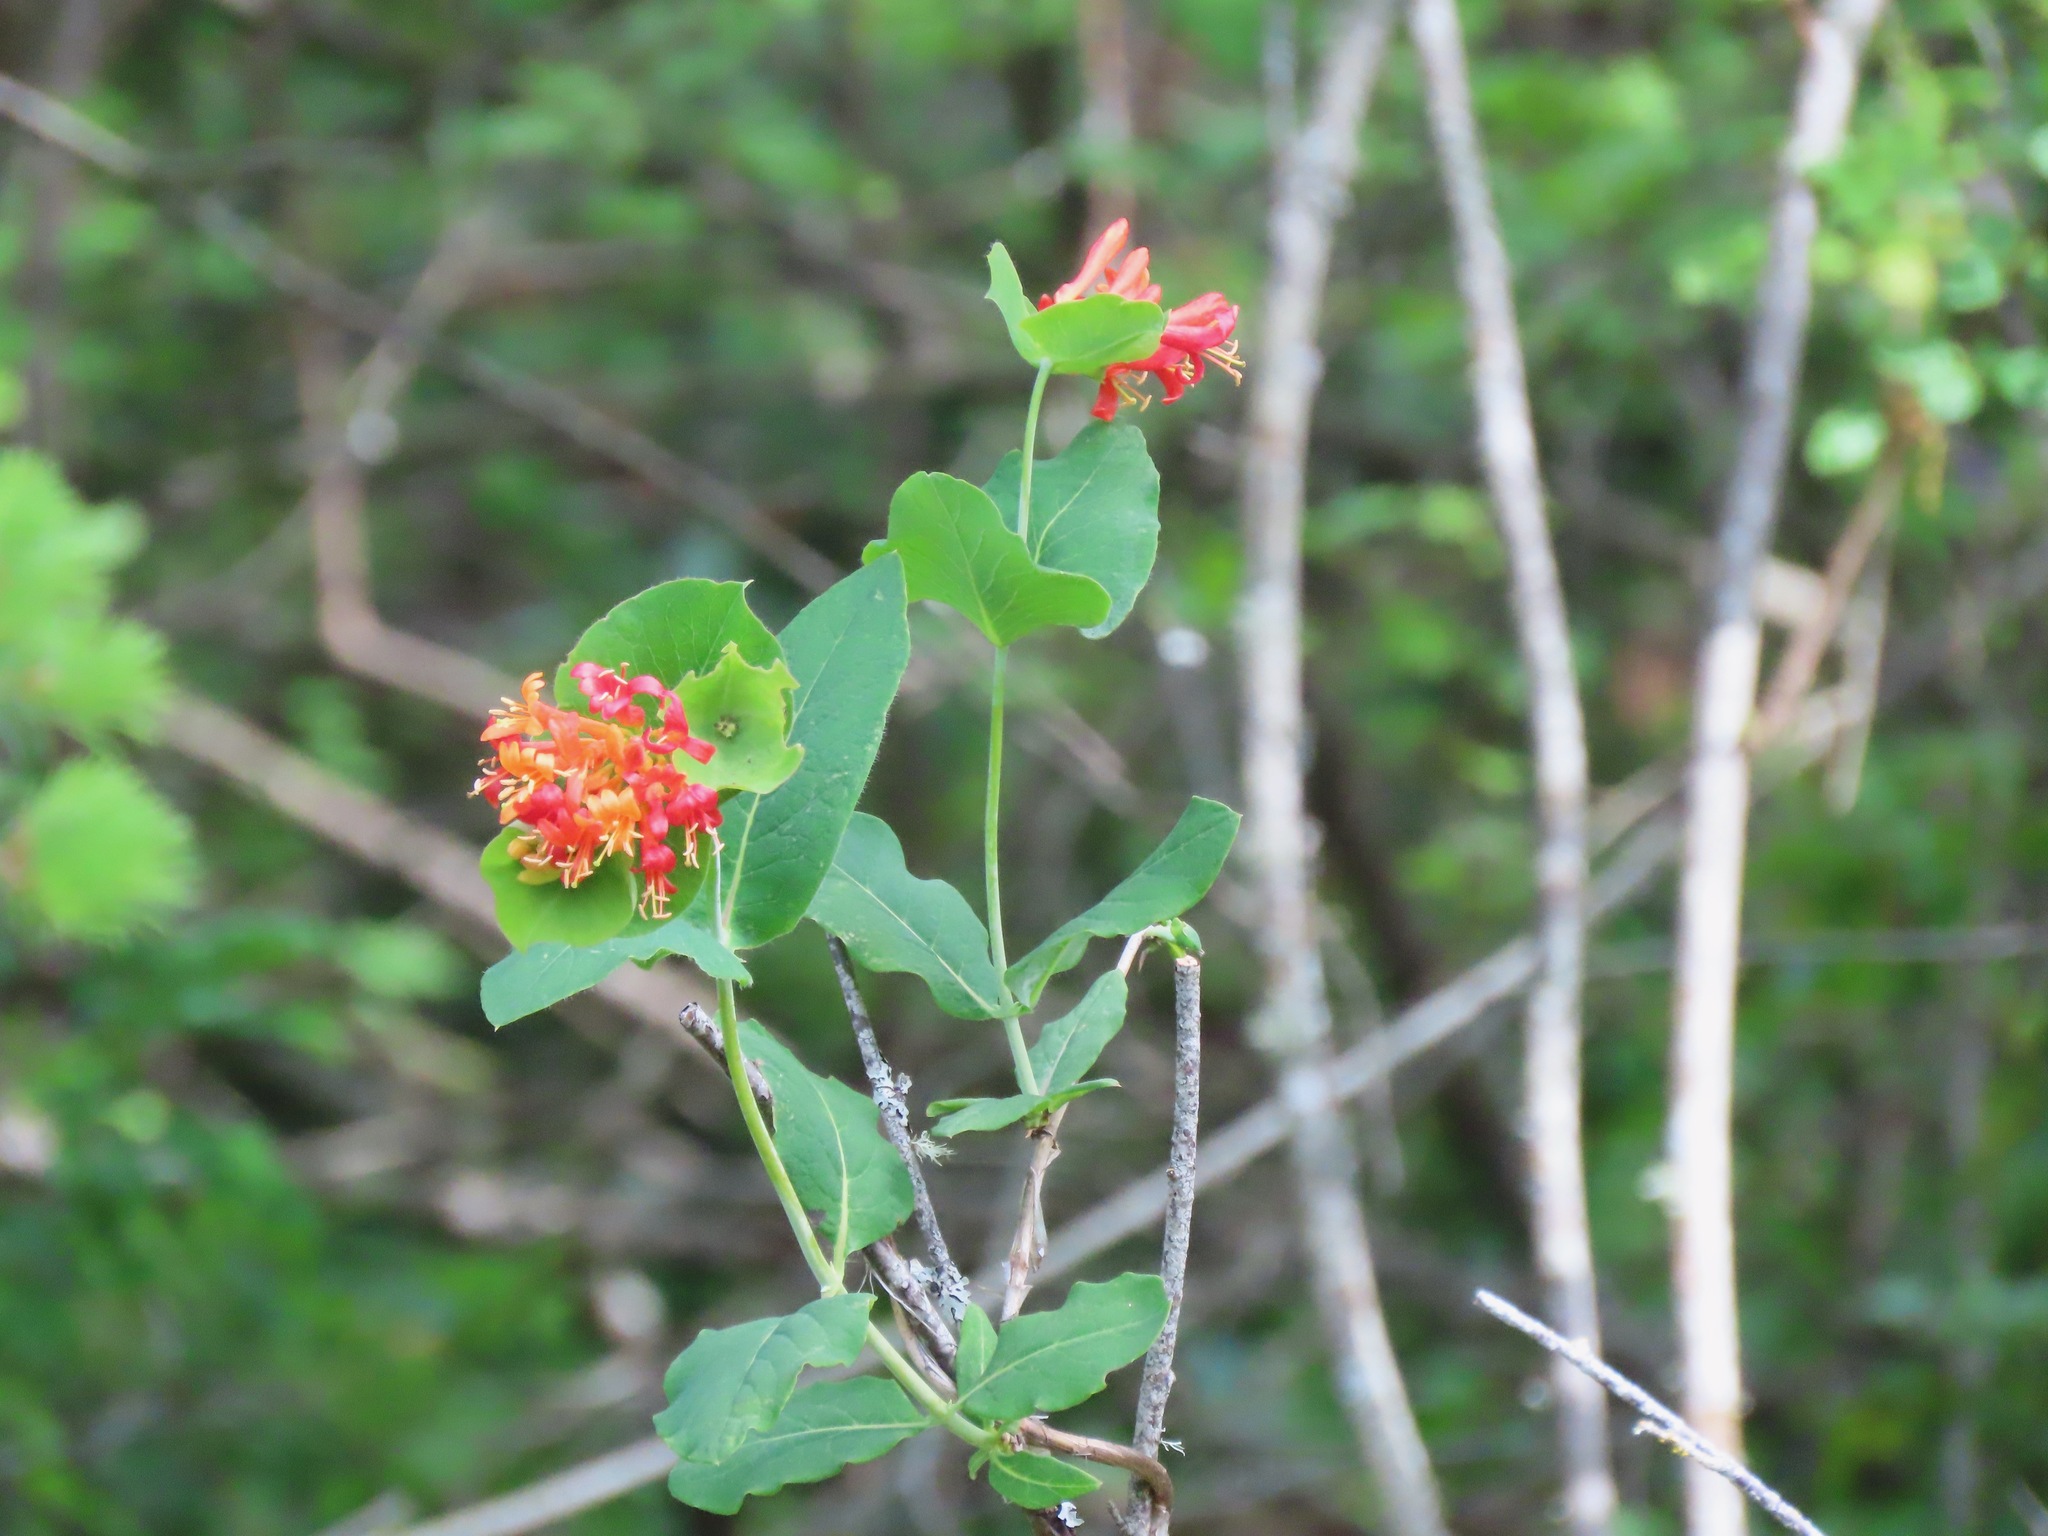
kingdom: Plantae
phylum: Tracheophyta
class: Magnoliopsida
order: Dipsacales
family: Caprifoliaceae
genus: Lonicera
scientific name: Lonicera ciliosa
